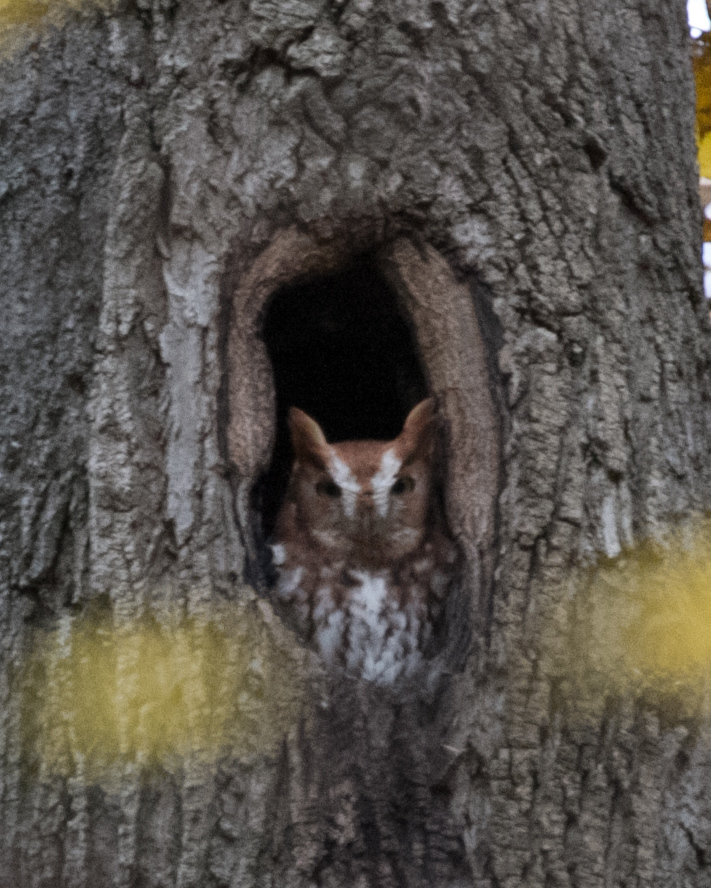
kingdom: Animalia
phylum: Chordata
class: Aves
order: Strigiformes
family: Strigidae
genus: Megascops
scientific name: Megascops asio
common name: Eastern screech-owl
